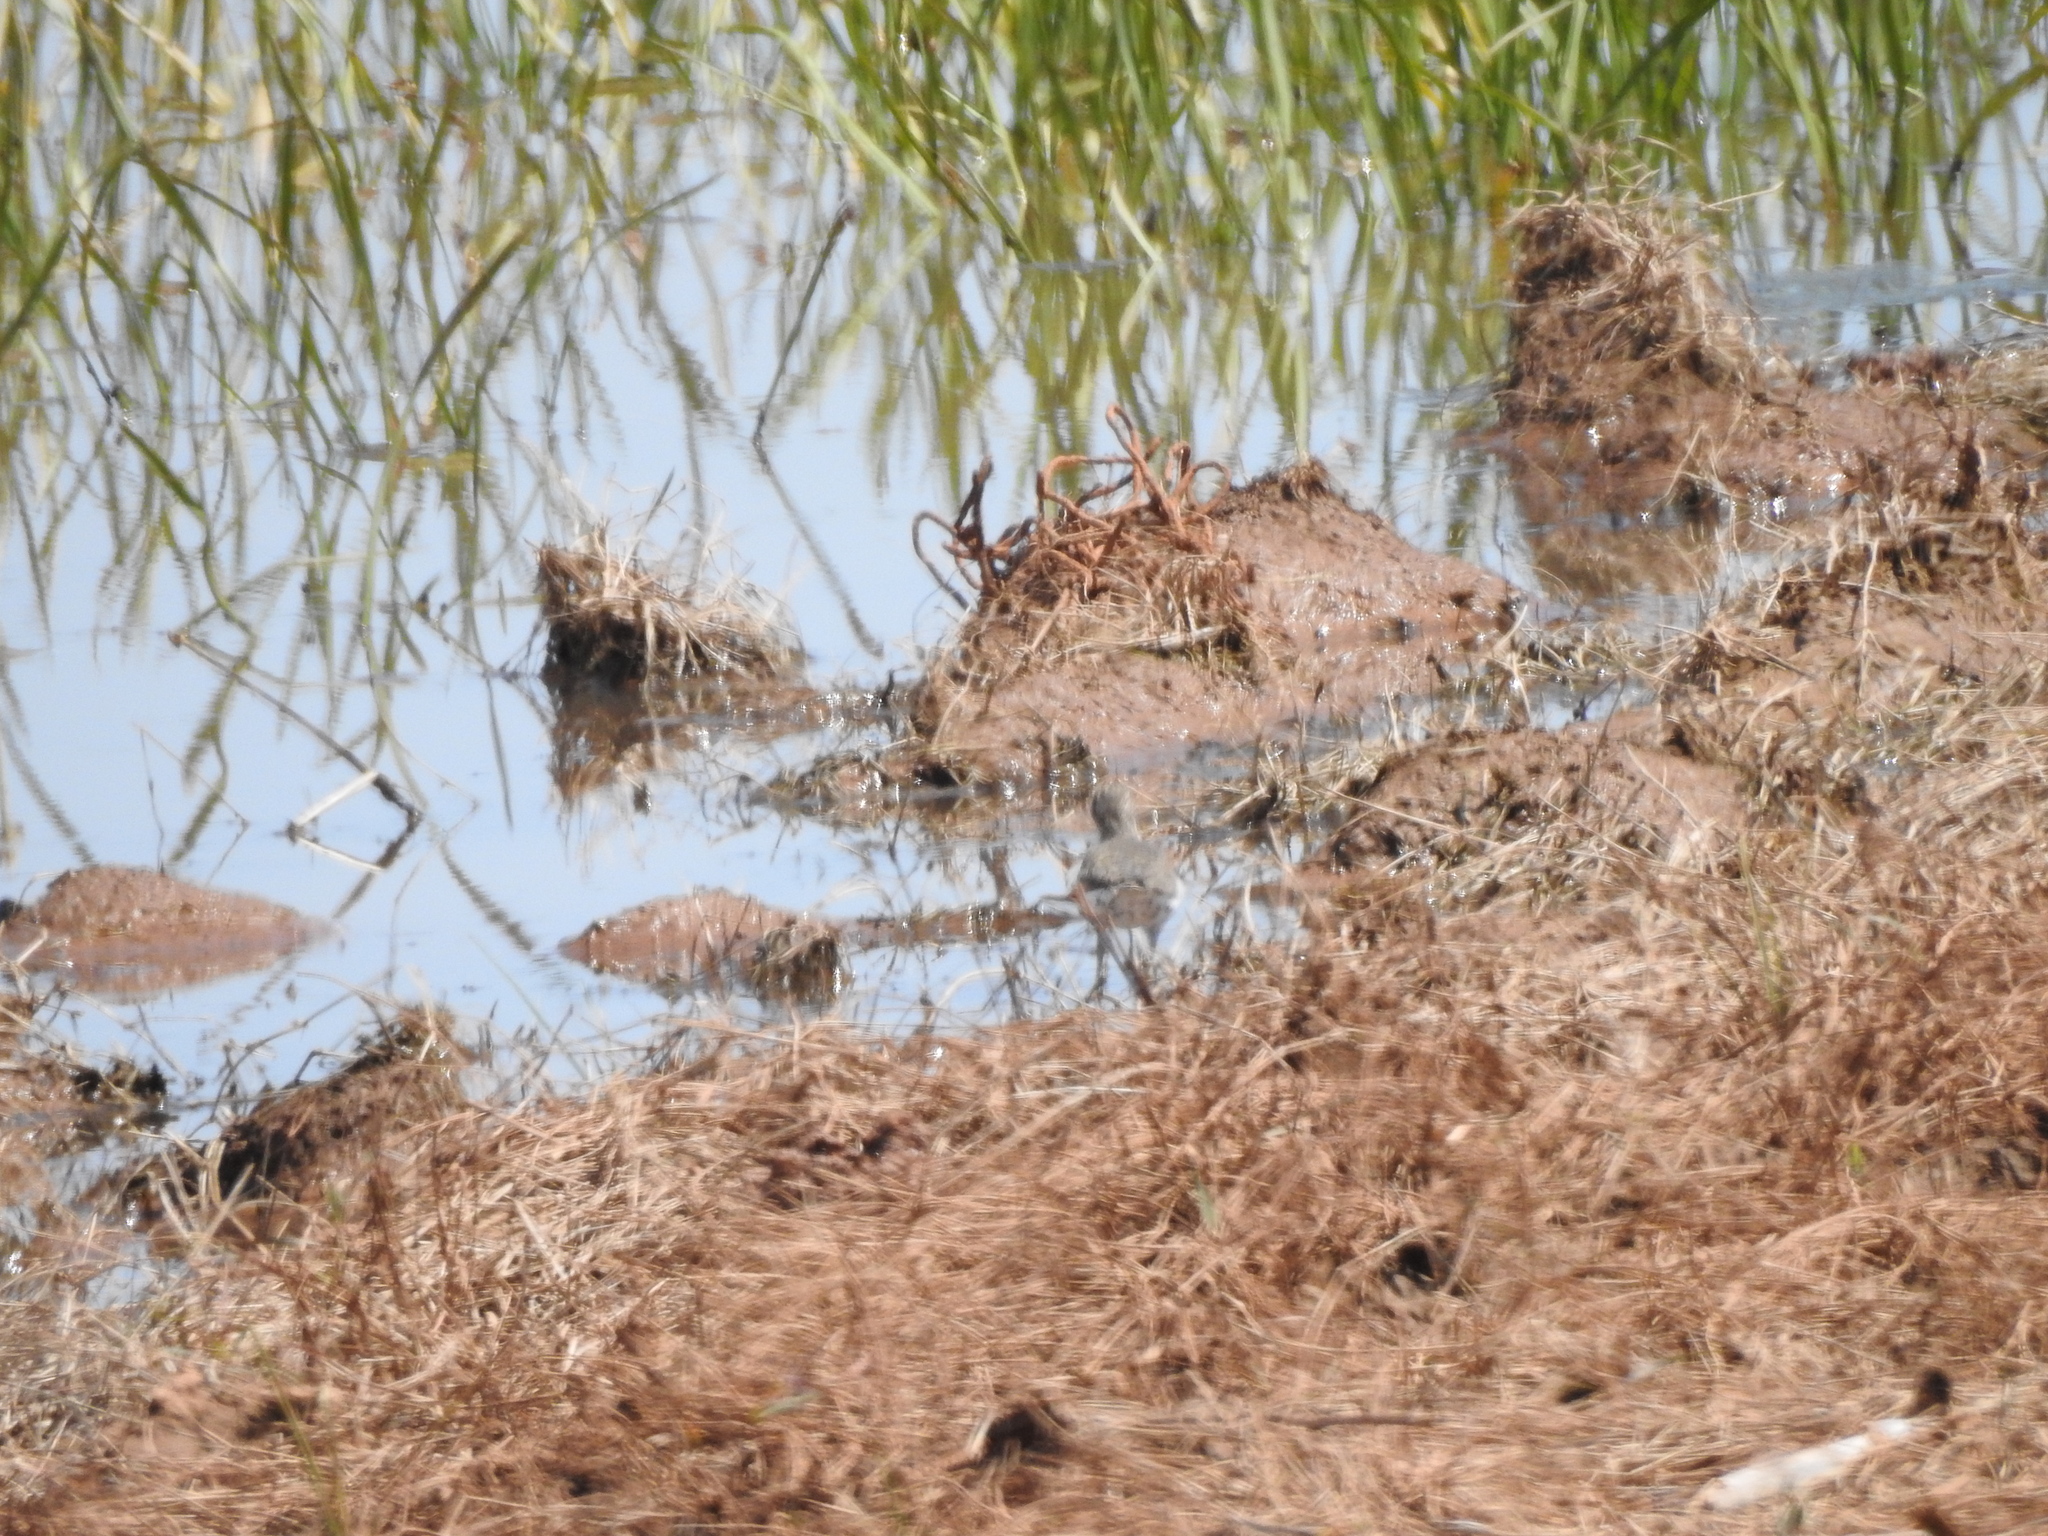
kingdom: Animalia
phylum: Chordata
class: Aves
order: Charadriiformes
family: Scolopacidae
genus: Actitis
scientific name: Actitis macularius
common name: Spotted sandpiper
